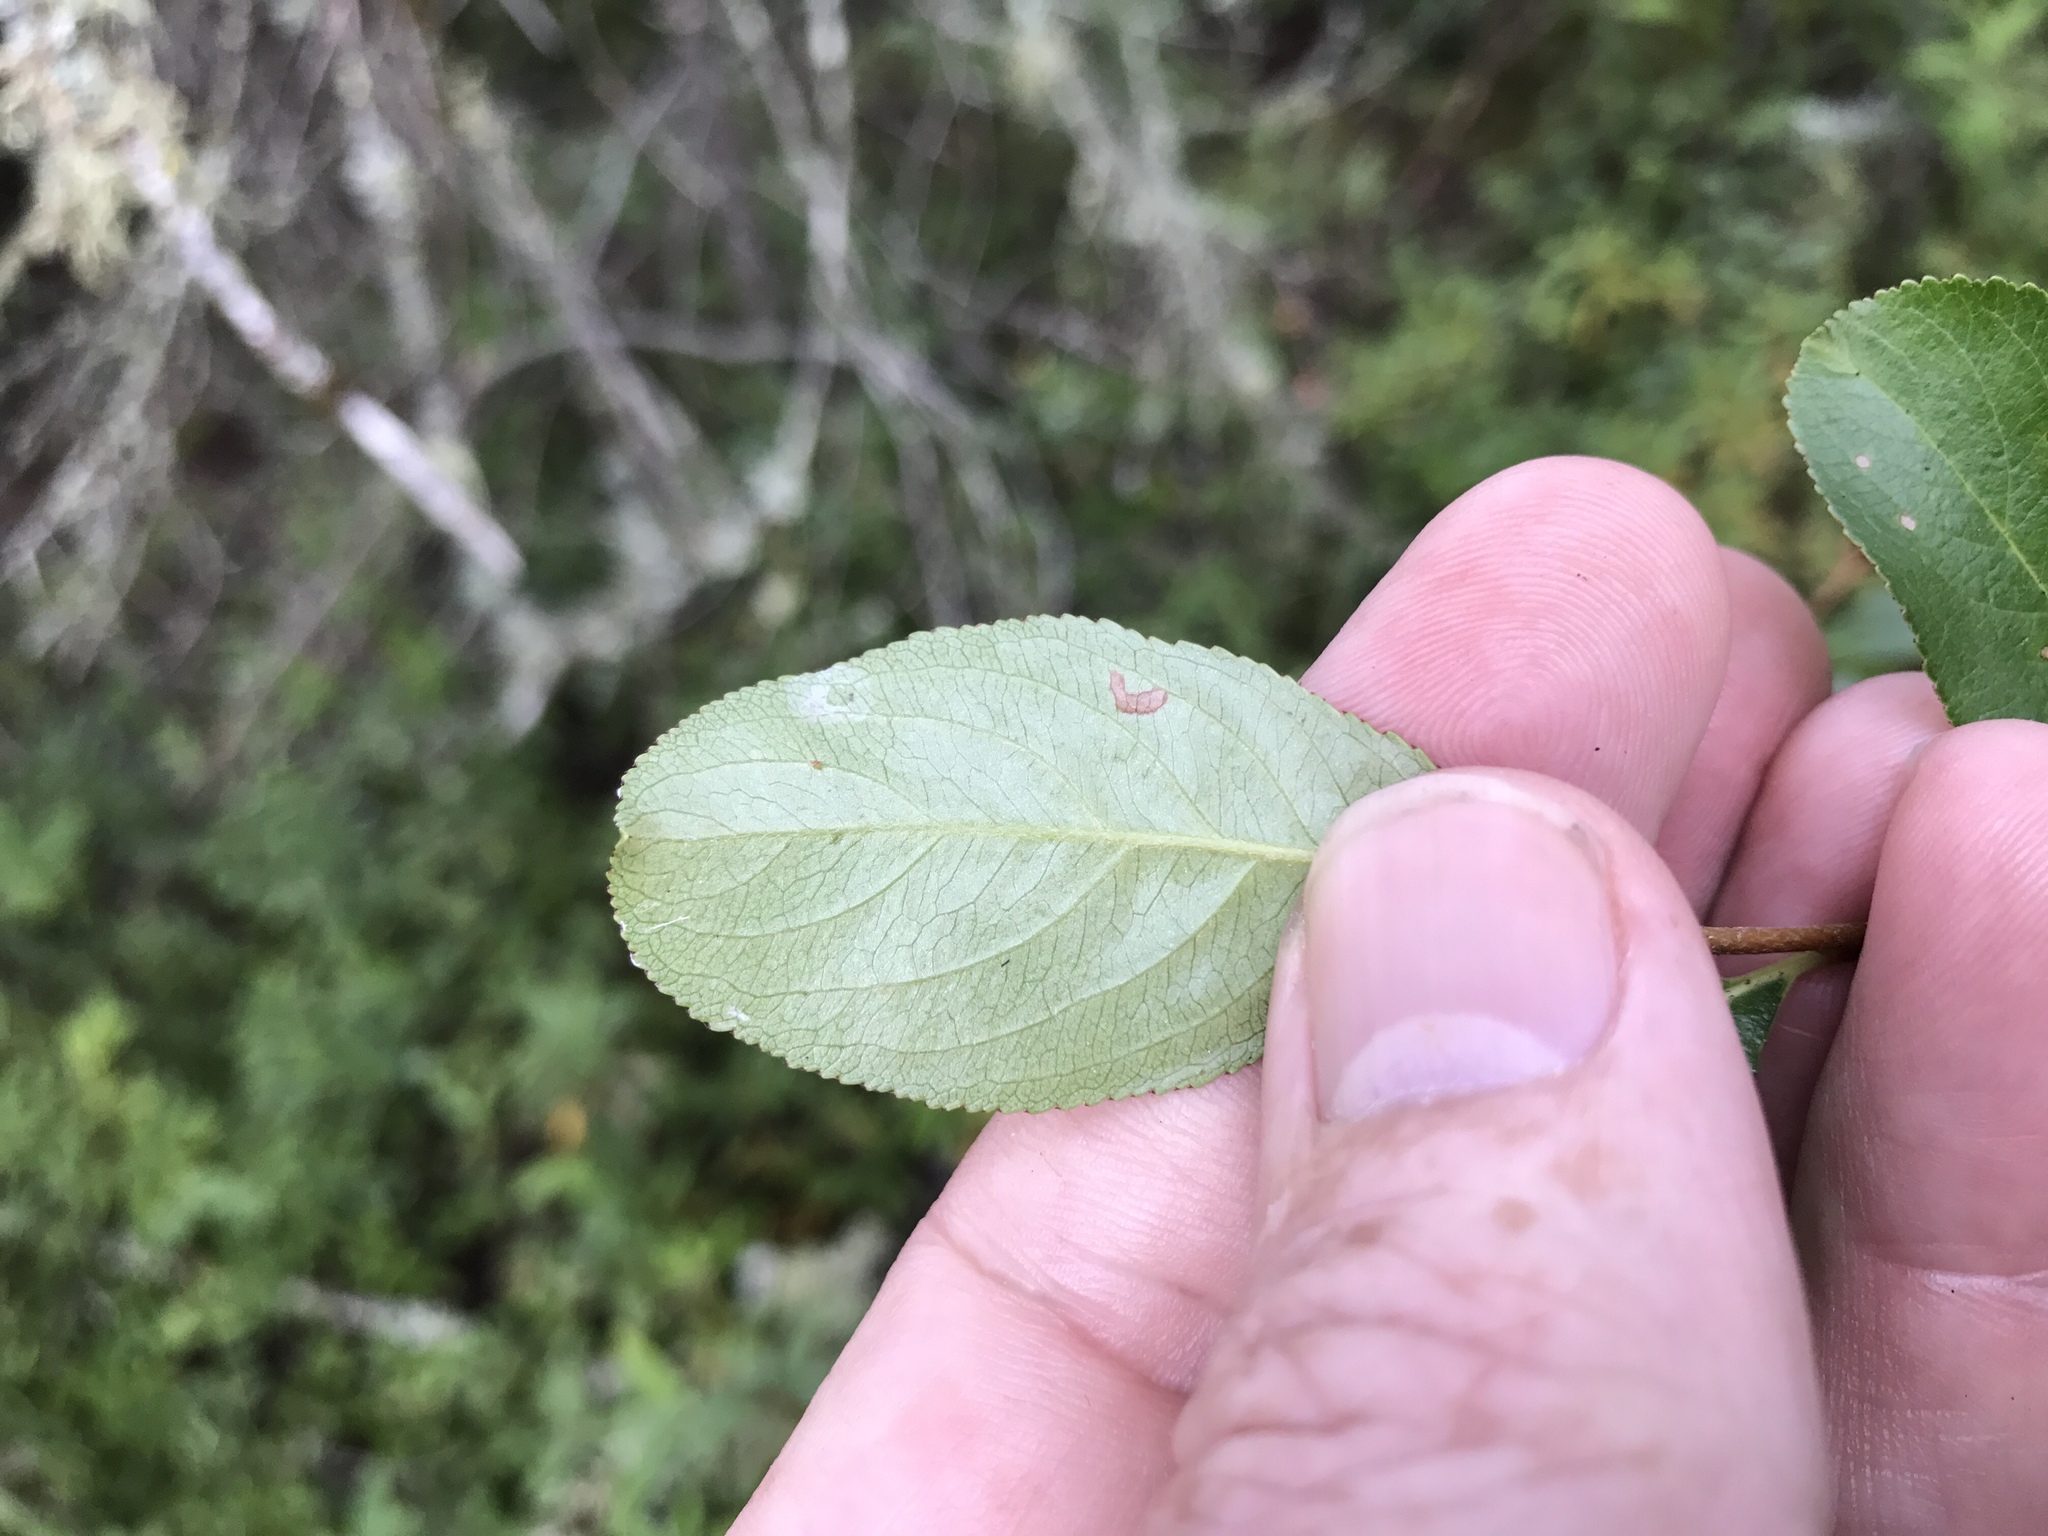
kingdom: Plantae
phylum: Tracheophyta
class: Magnoliopsida
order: Rosales
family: Rosaceae
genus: Aronia
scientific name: Aronia melanocarpa
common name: Black chokeberry
